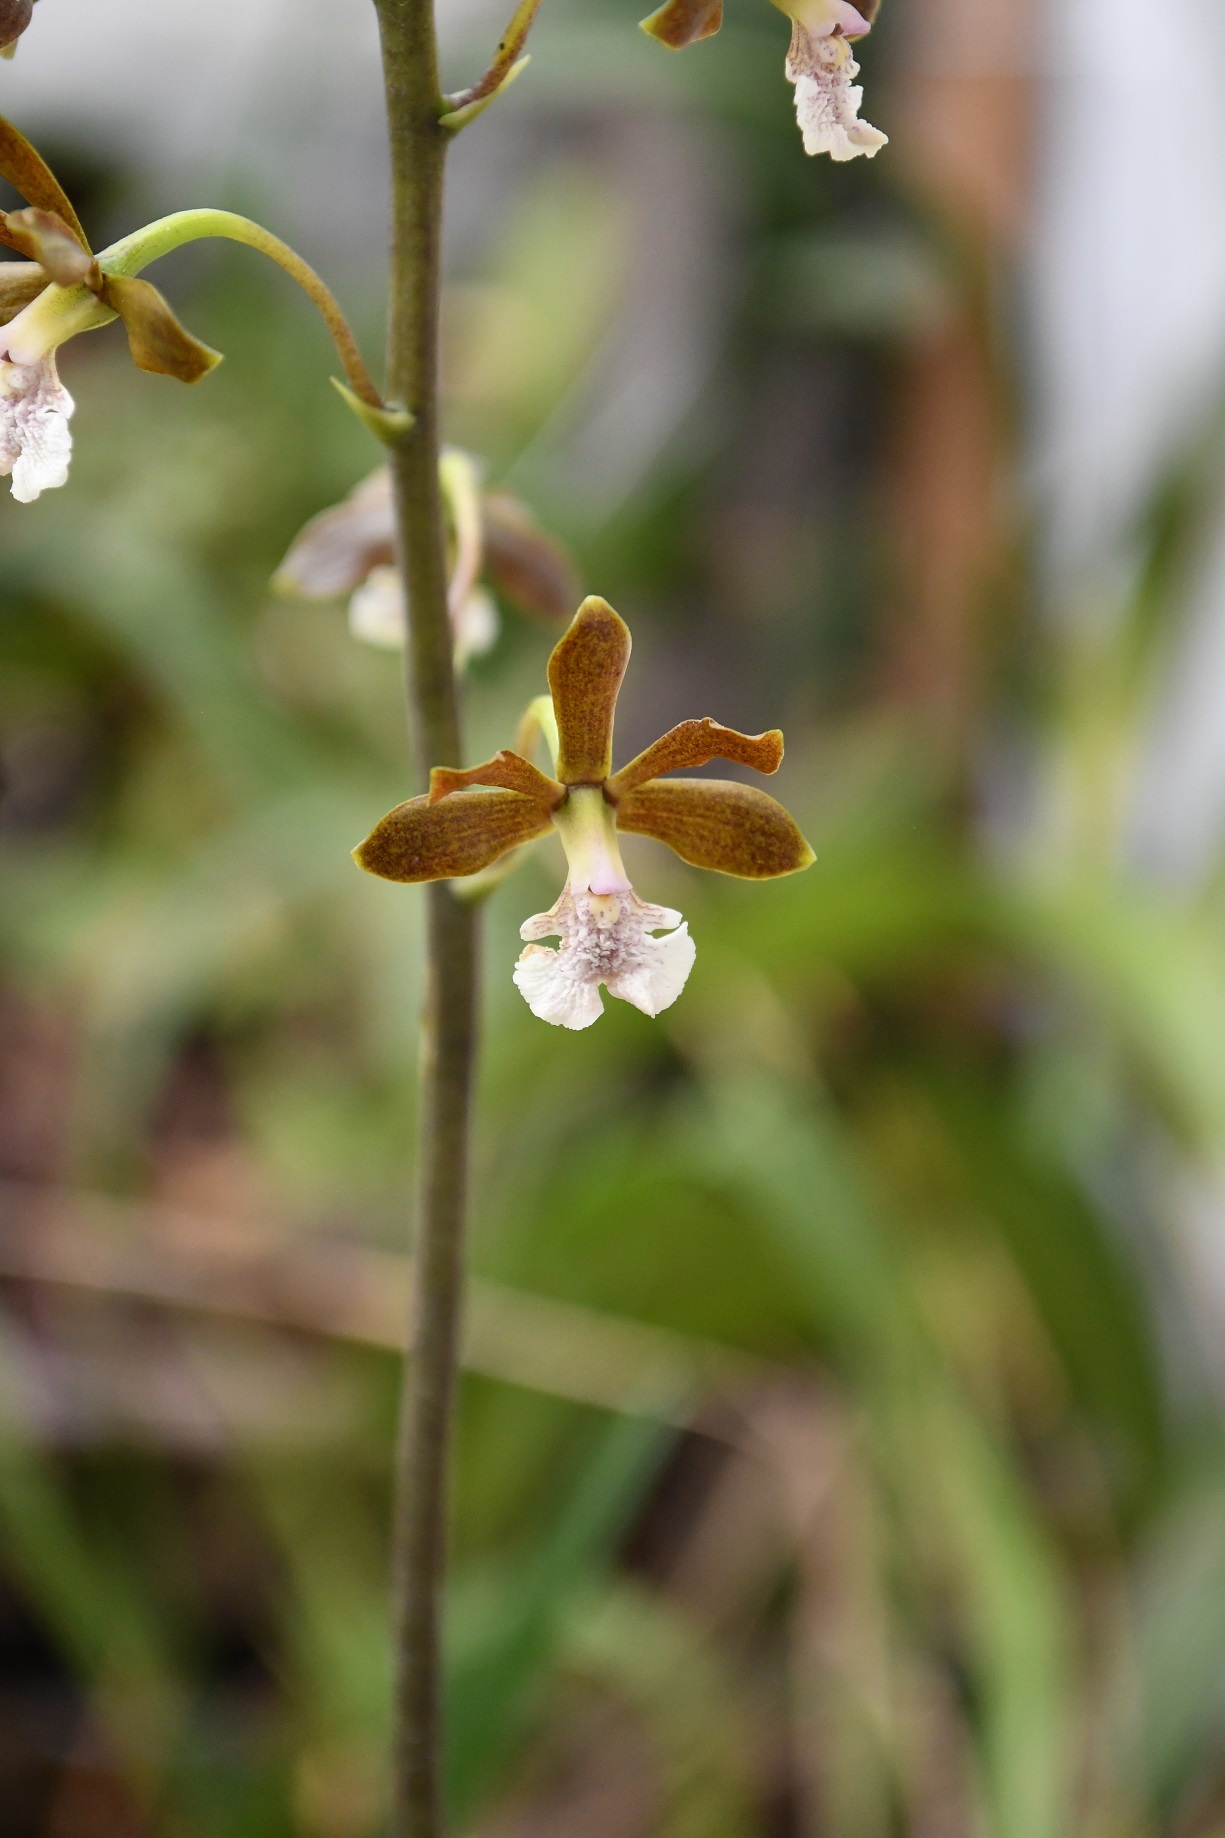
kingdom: Plantae
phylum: Tracheophyta
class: Liliopsida
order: Asparagales
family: Orchidaceae
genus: Prosthechea
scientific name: Prosthechea varicosa
